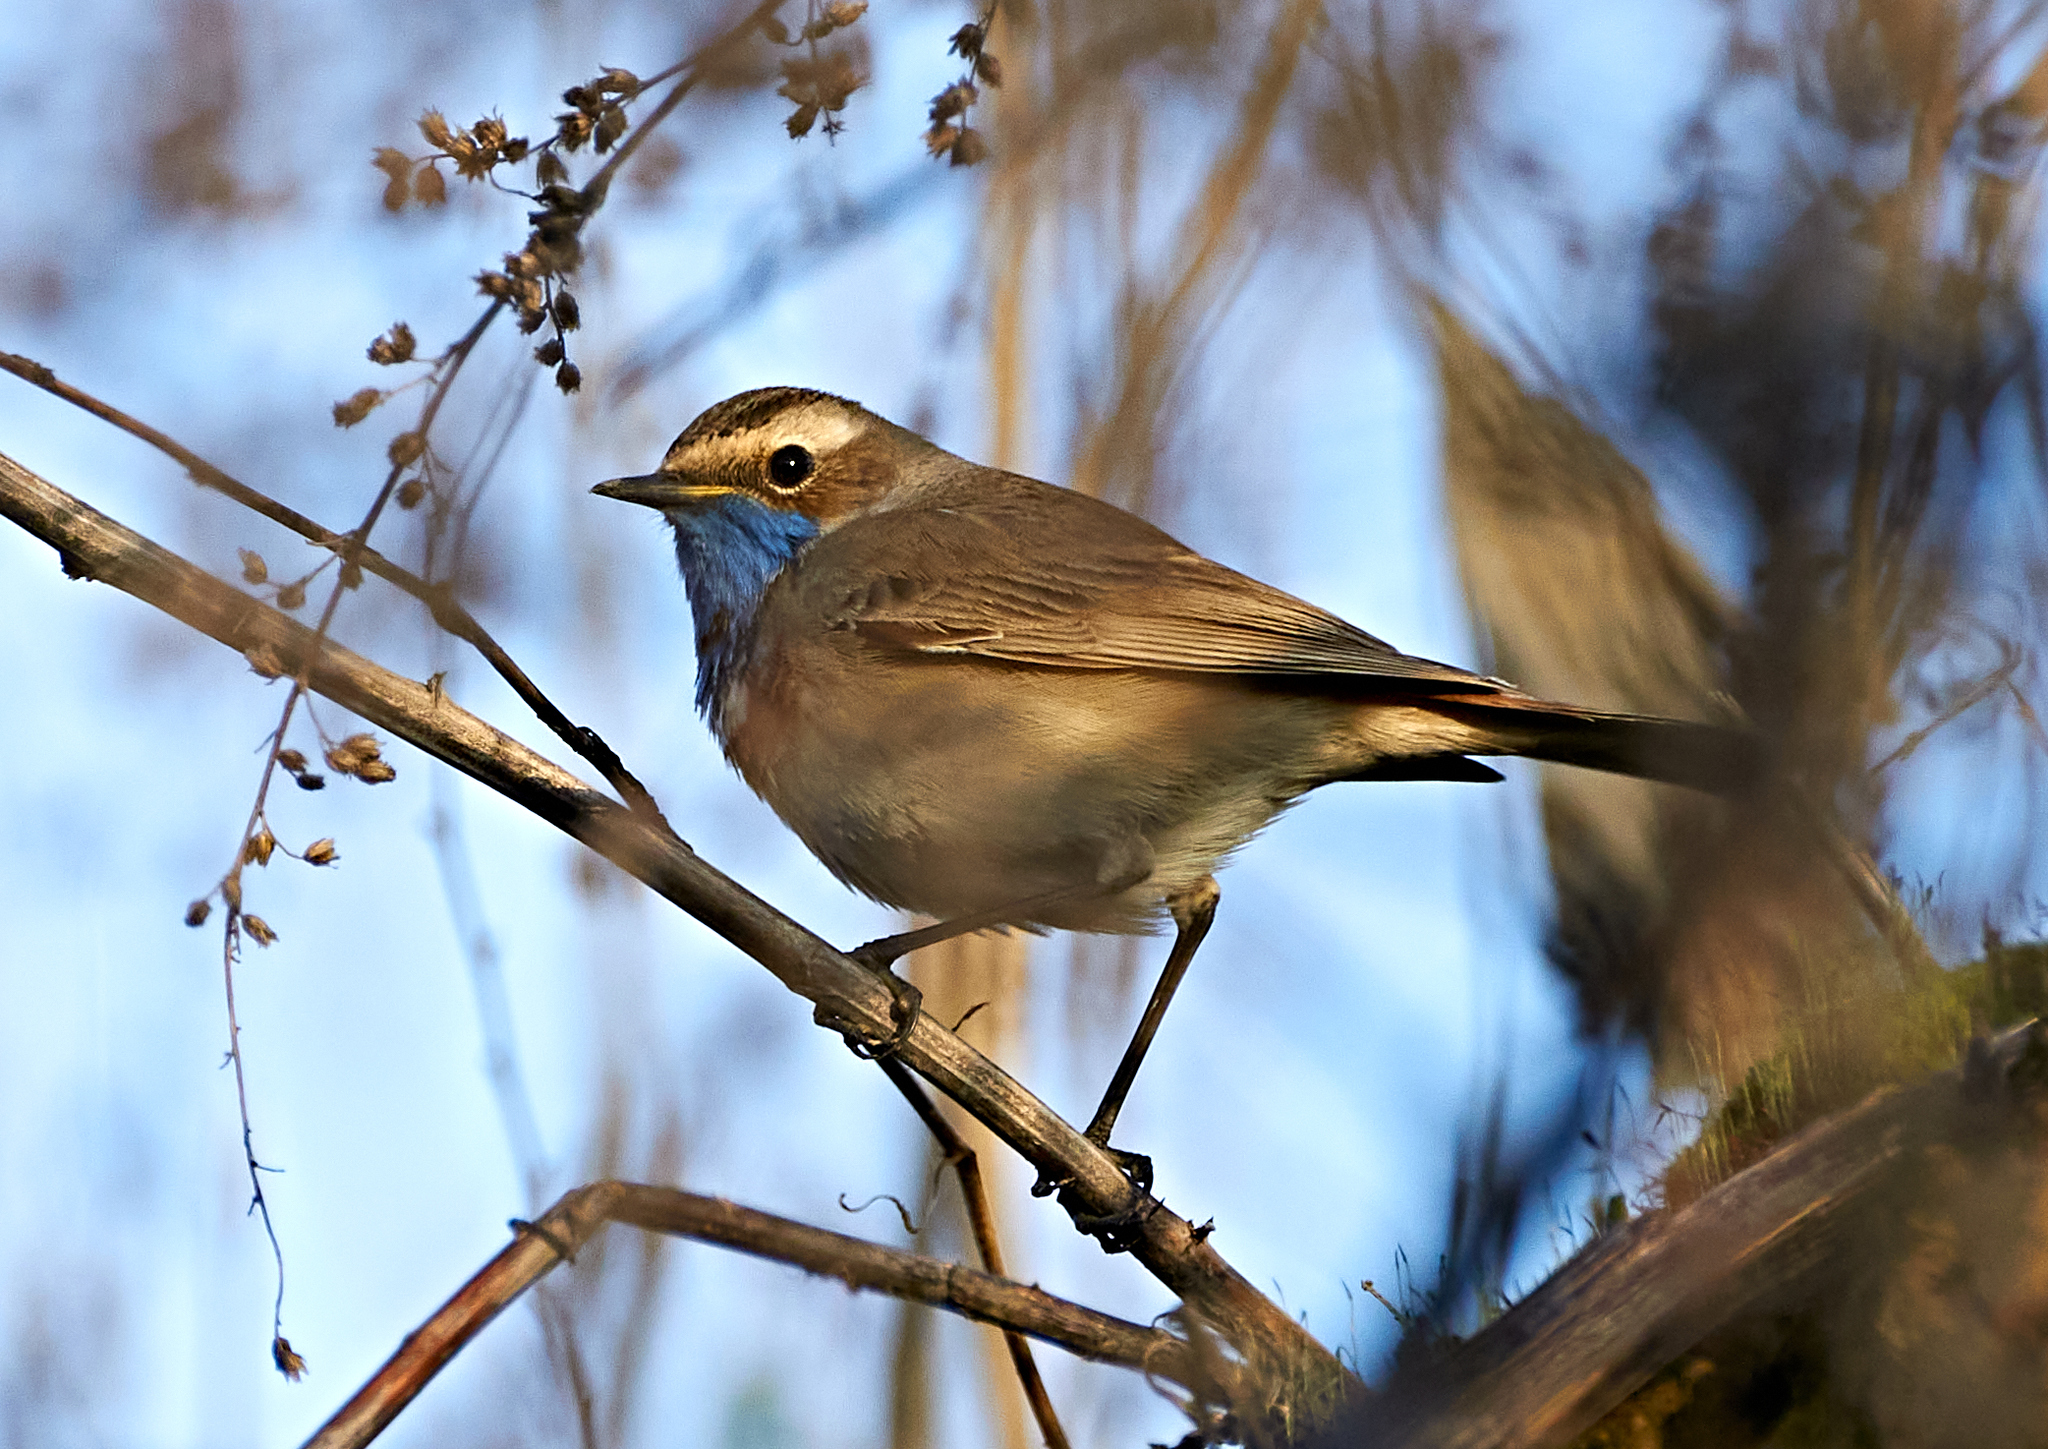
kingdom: Animalia
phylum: Chordata
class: Aves
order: Passeriformes
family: Muscicapidae
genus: Luscinia
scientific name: Luscinia svecica
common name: Bluethroat
